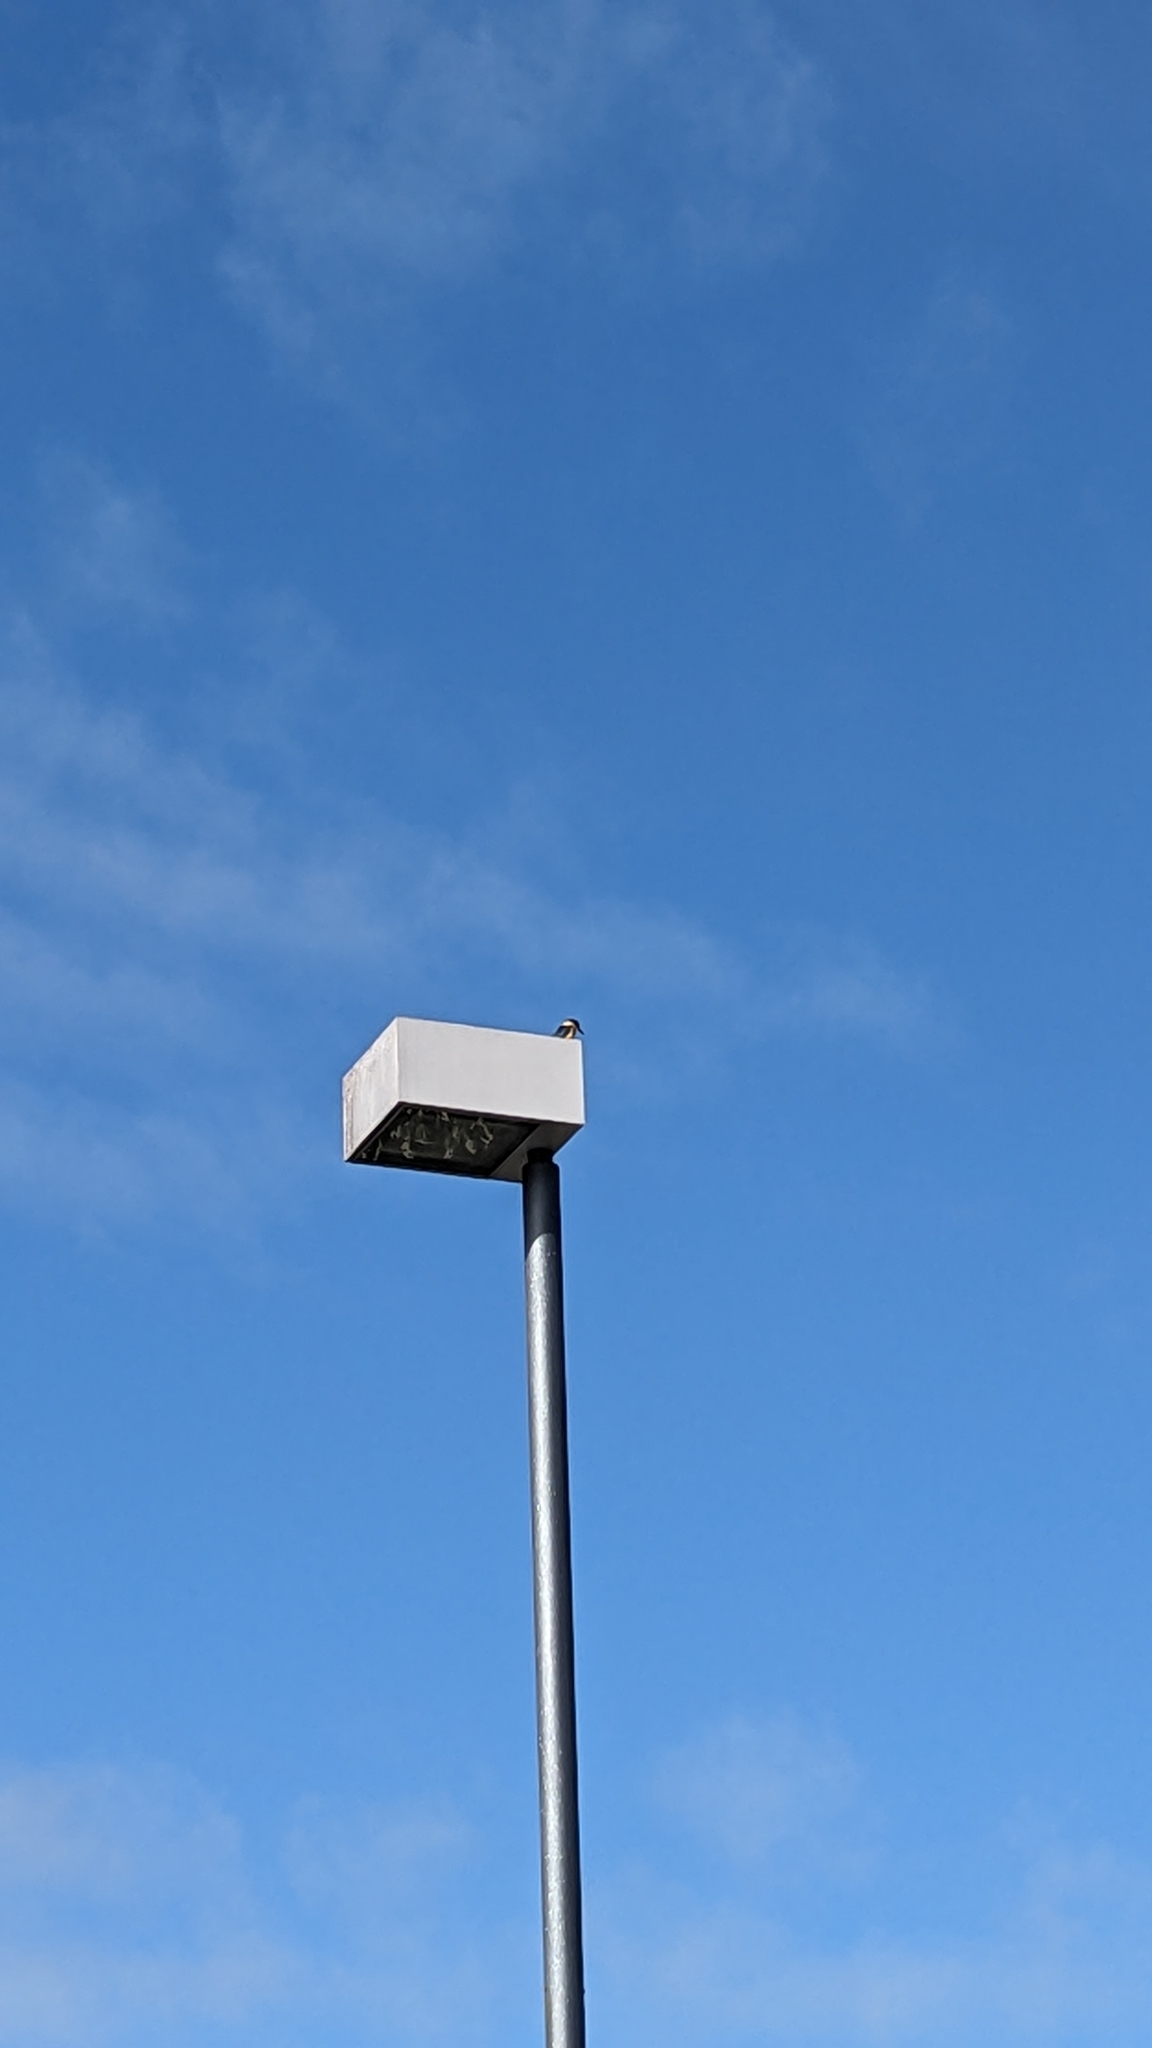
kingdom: Animalia
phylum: Chordata
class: Aves
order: Coraciiformes
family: Alcedinidae
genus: Todiramphus
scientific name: Todiramphus sanctus
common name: Sacred kingfisher
